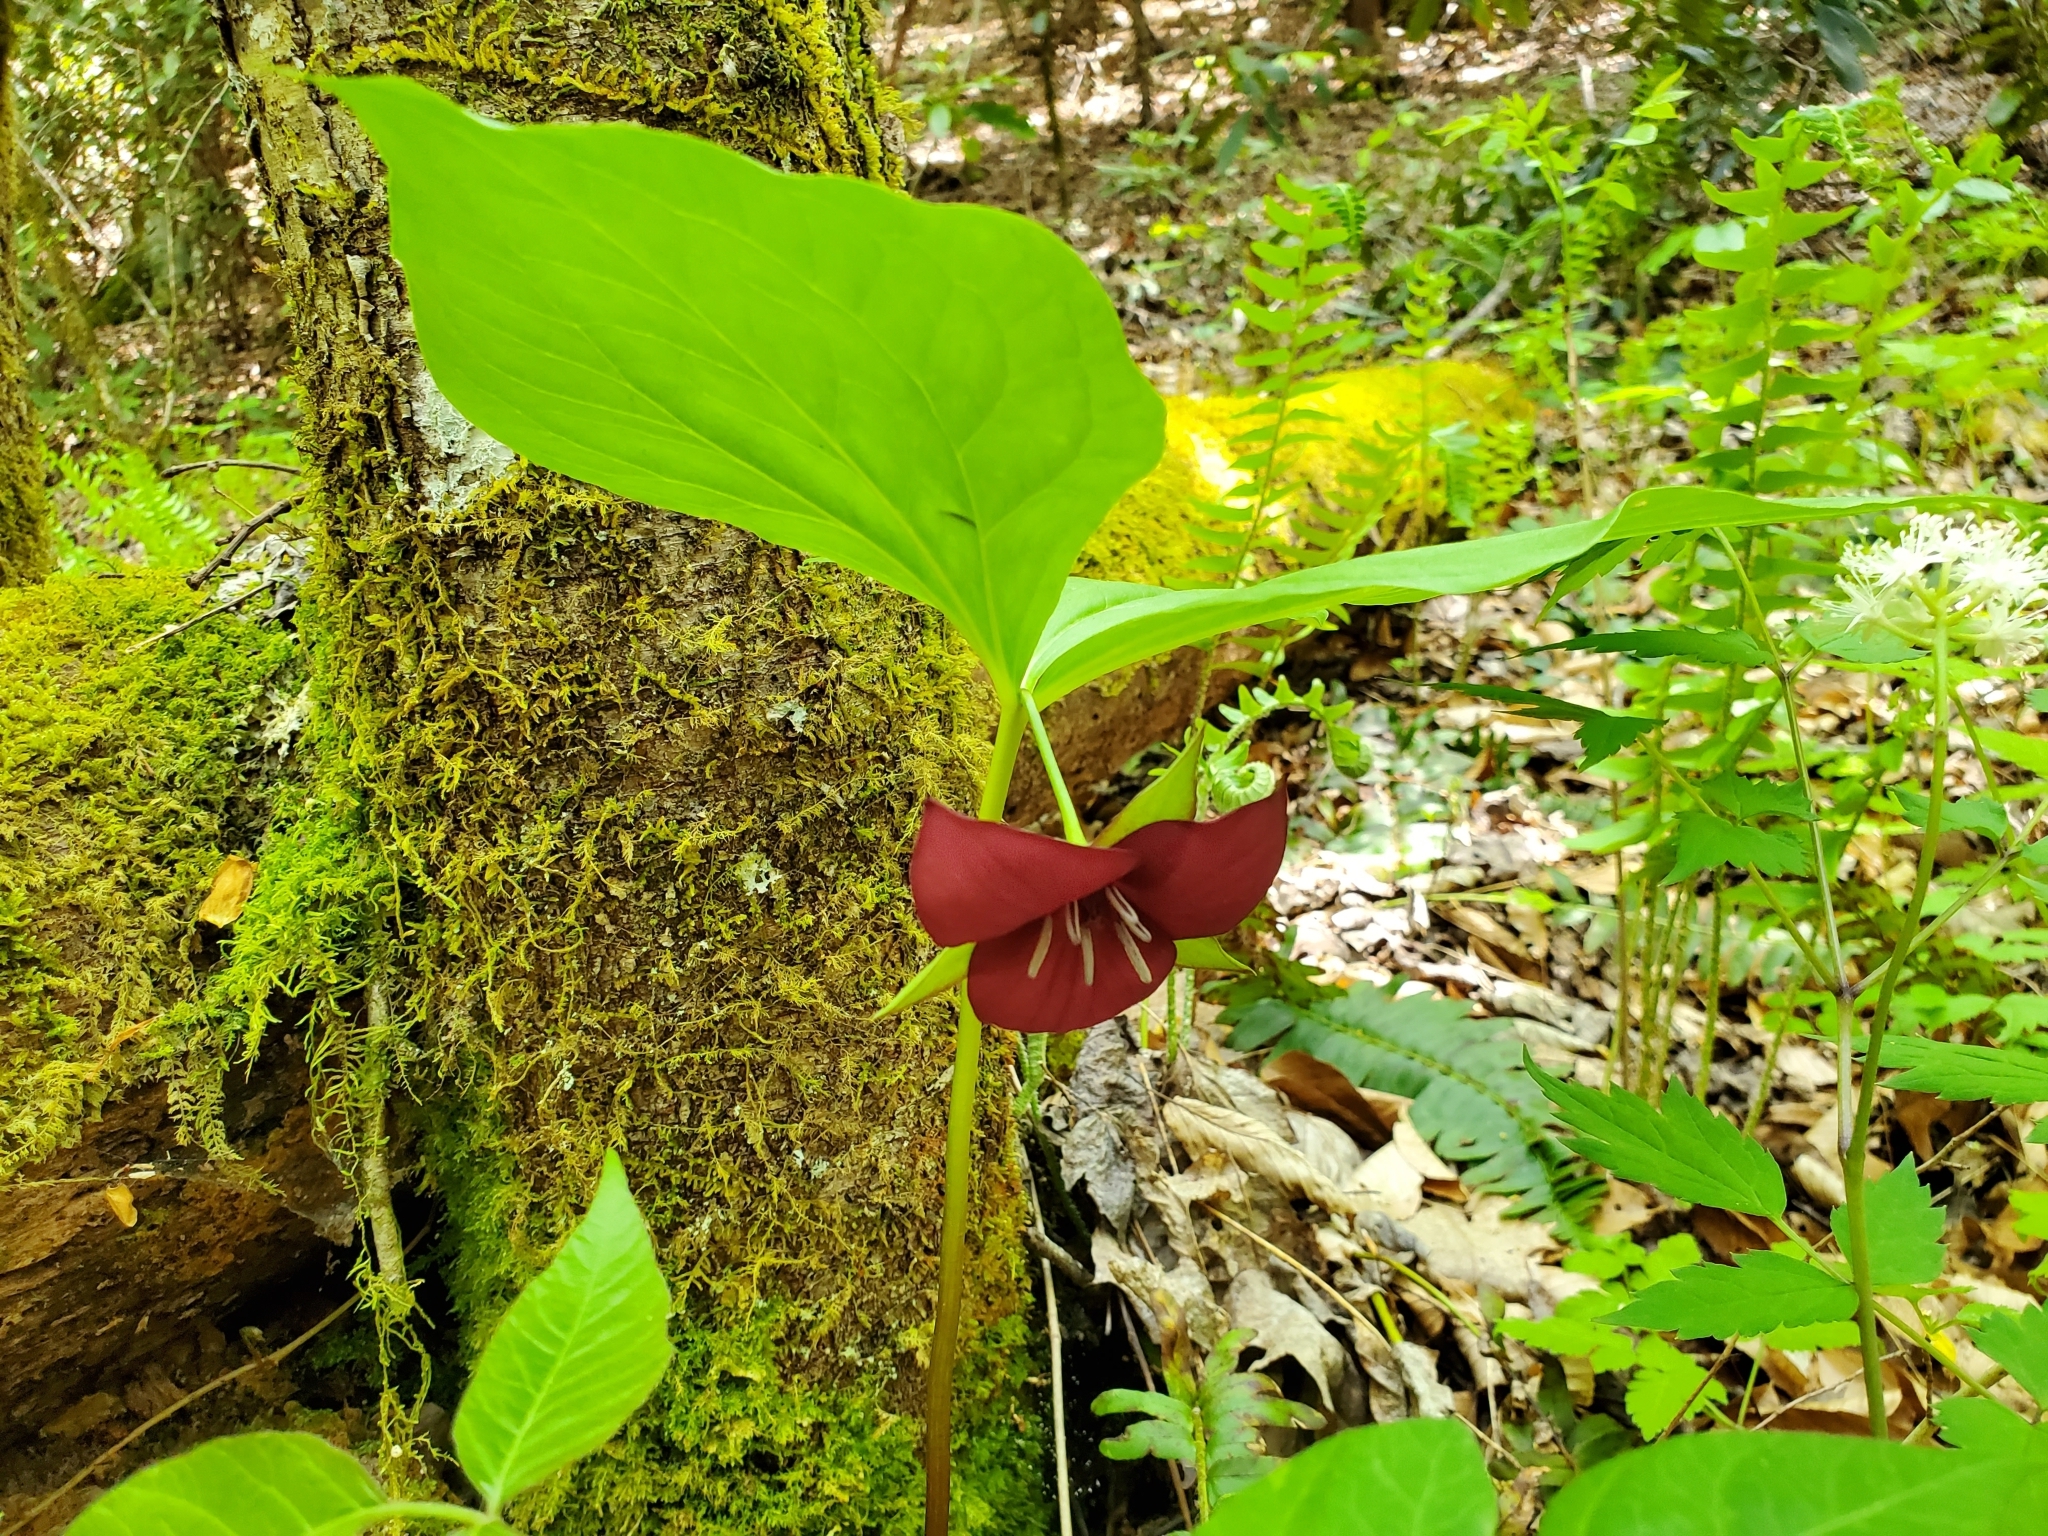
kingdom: Plantae
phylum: Tracheophyta
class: Liliopsida
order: Liliales
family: Melanthiaceae
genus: Trillium
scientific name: Trillium vaseyi
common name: Sweet trillium
